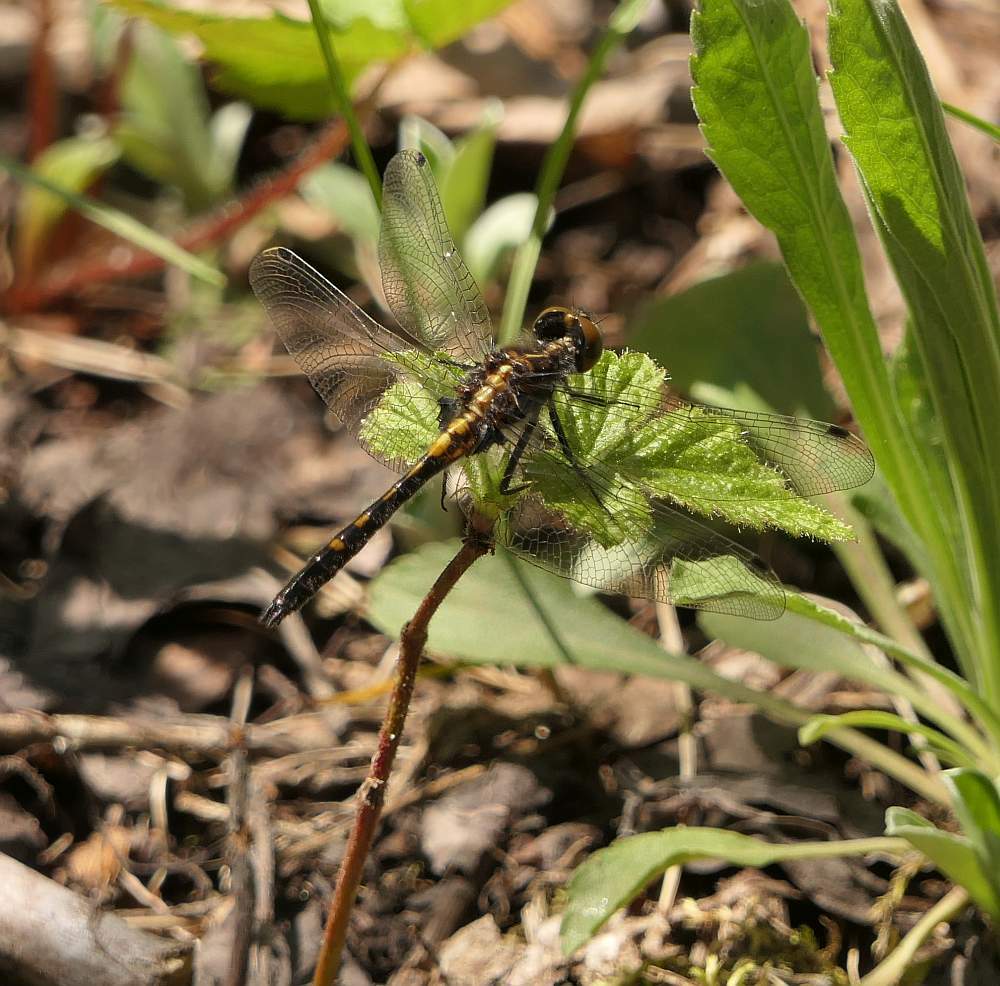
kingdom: Animalia
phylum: Arthropoda
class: Insecta
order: Odonata
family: Libellulidae
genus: Leucorrhinia
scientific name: Leucorrhinia intacta
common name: Dot-tailed whiteface
